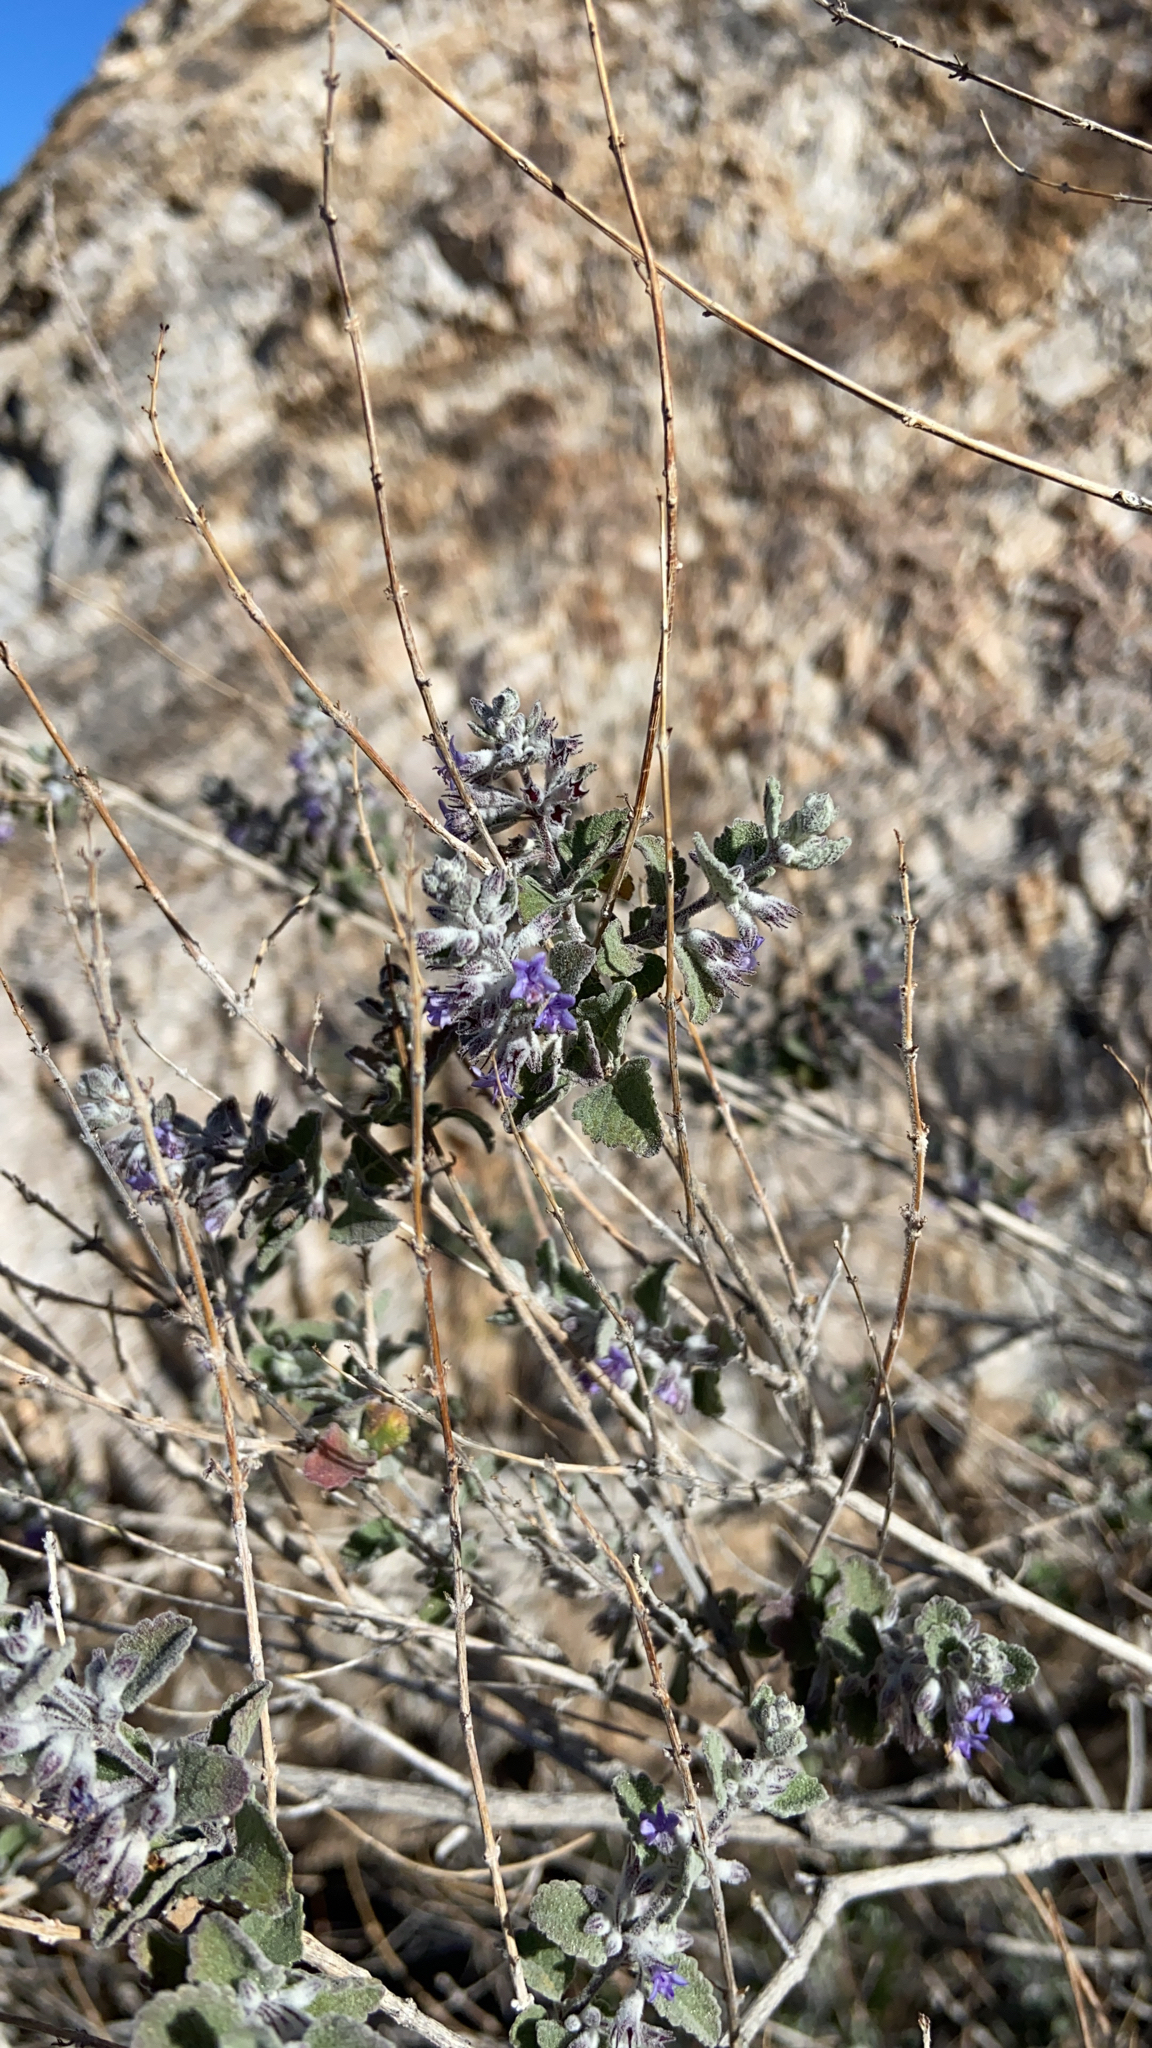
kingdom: Plantae
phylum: Tracheophyta
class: Magnoliopsida
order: Lamiales
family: Lamiaceae
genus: Condea
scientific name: Condea emoryi
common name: Chia
